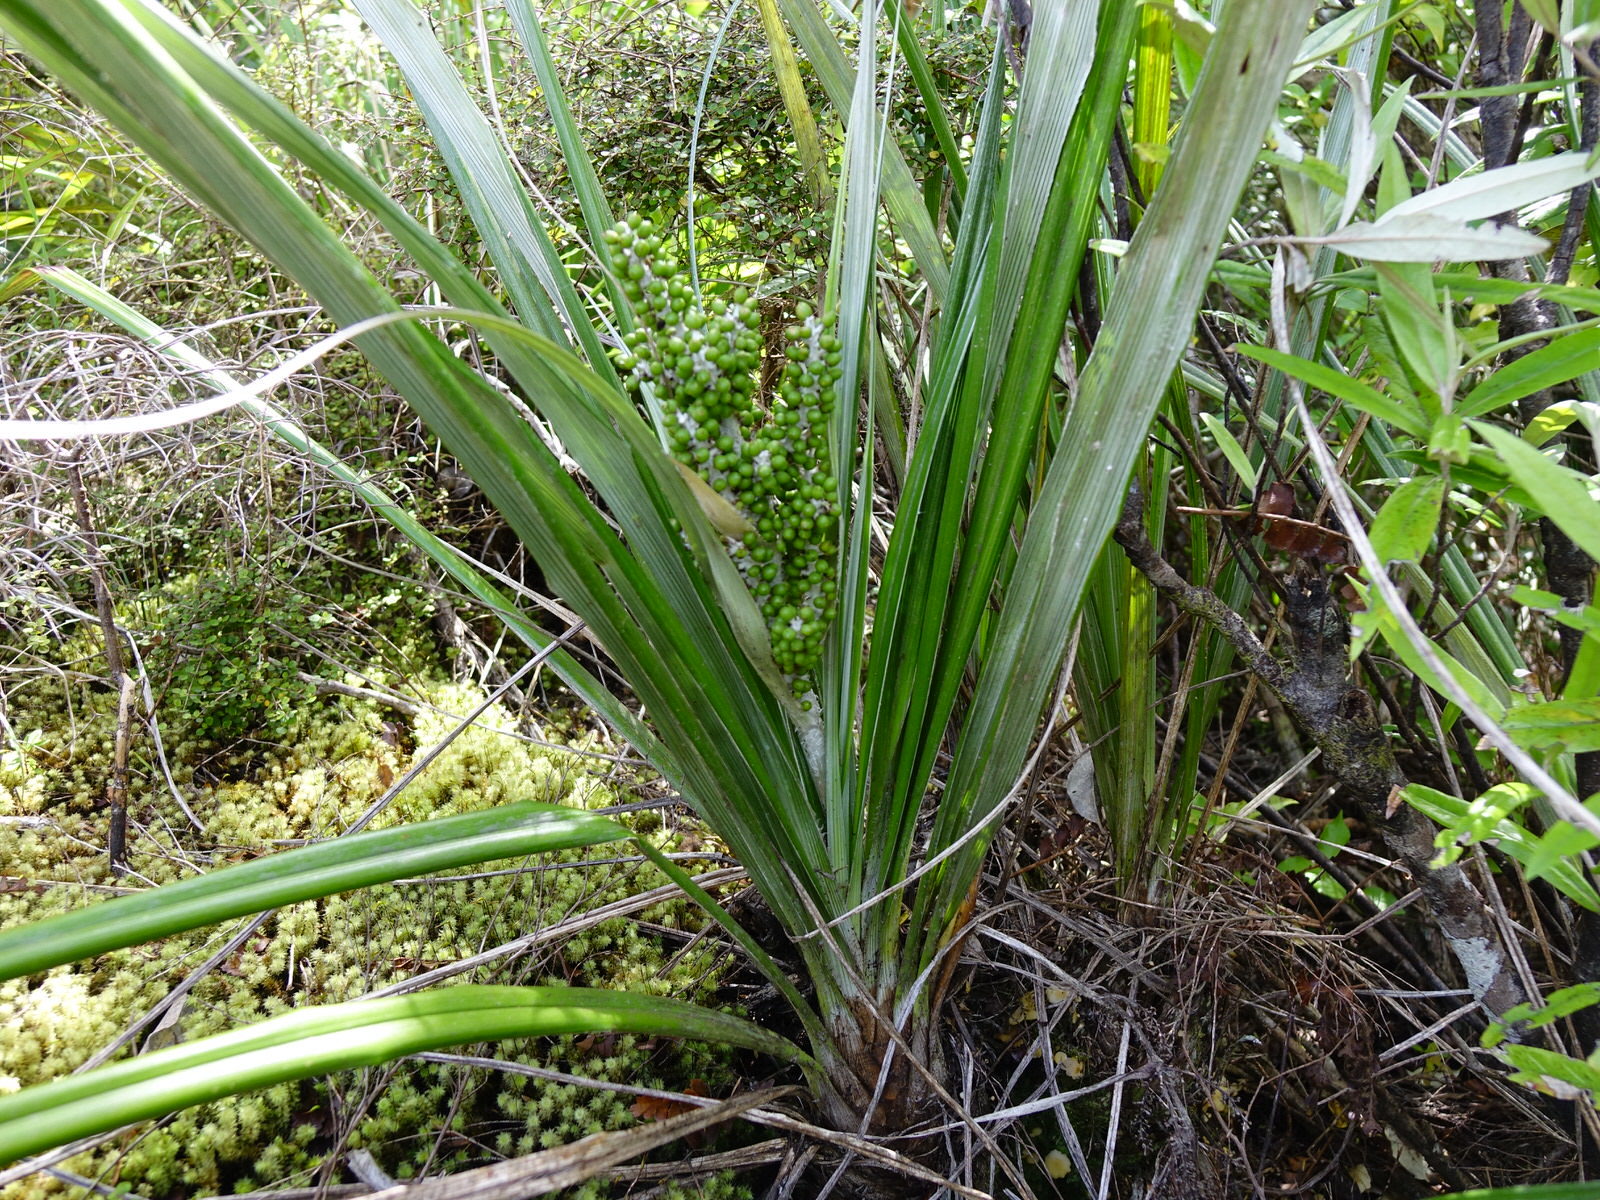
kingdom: Plantae
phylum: Tracheophyta
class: Liliopsida
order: Asparagales
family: Asteliaceae
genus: Astelia
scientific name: Astelia banksii
